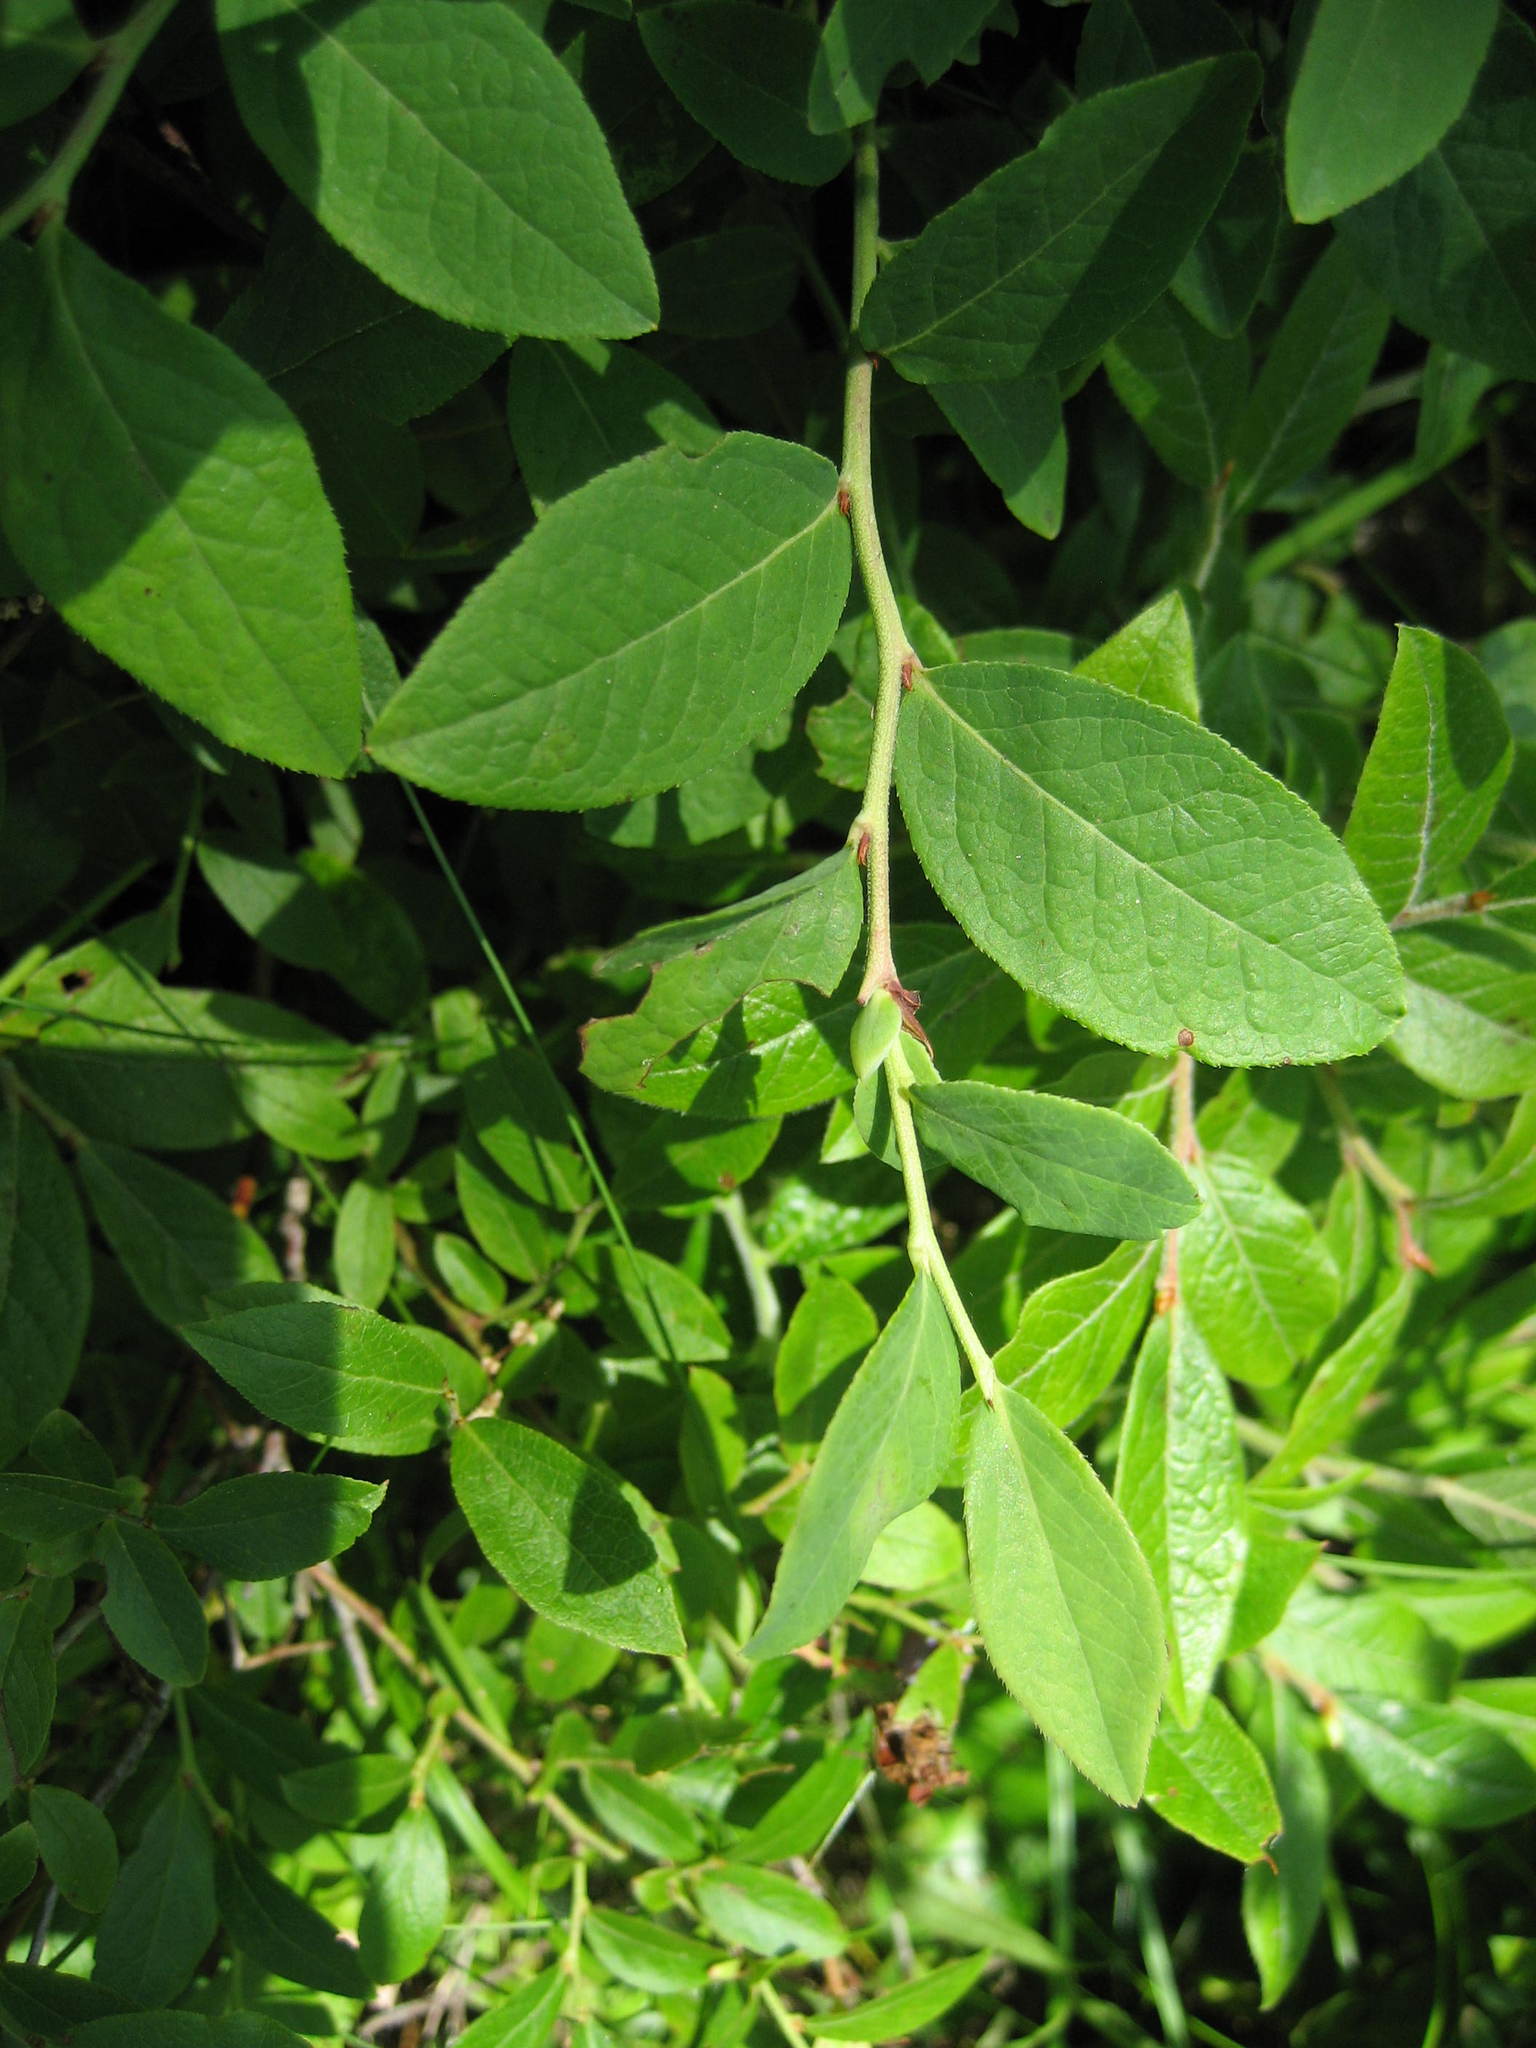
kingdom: Plantae
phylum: Tracheophyta
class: Magnoliopsida
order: Ericales
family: Ericaceae
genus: Vaccinium
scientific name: Vaccinium angustifolium
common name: Early lowbush blueberry
